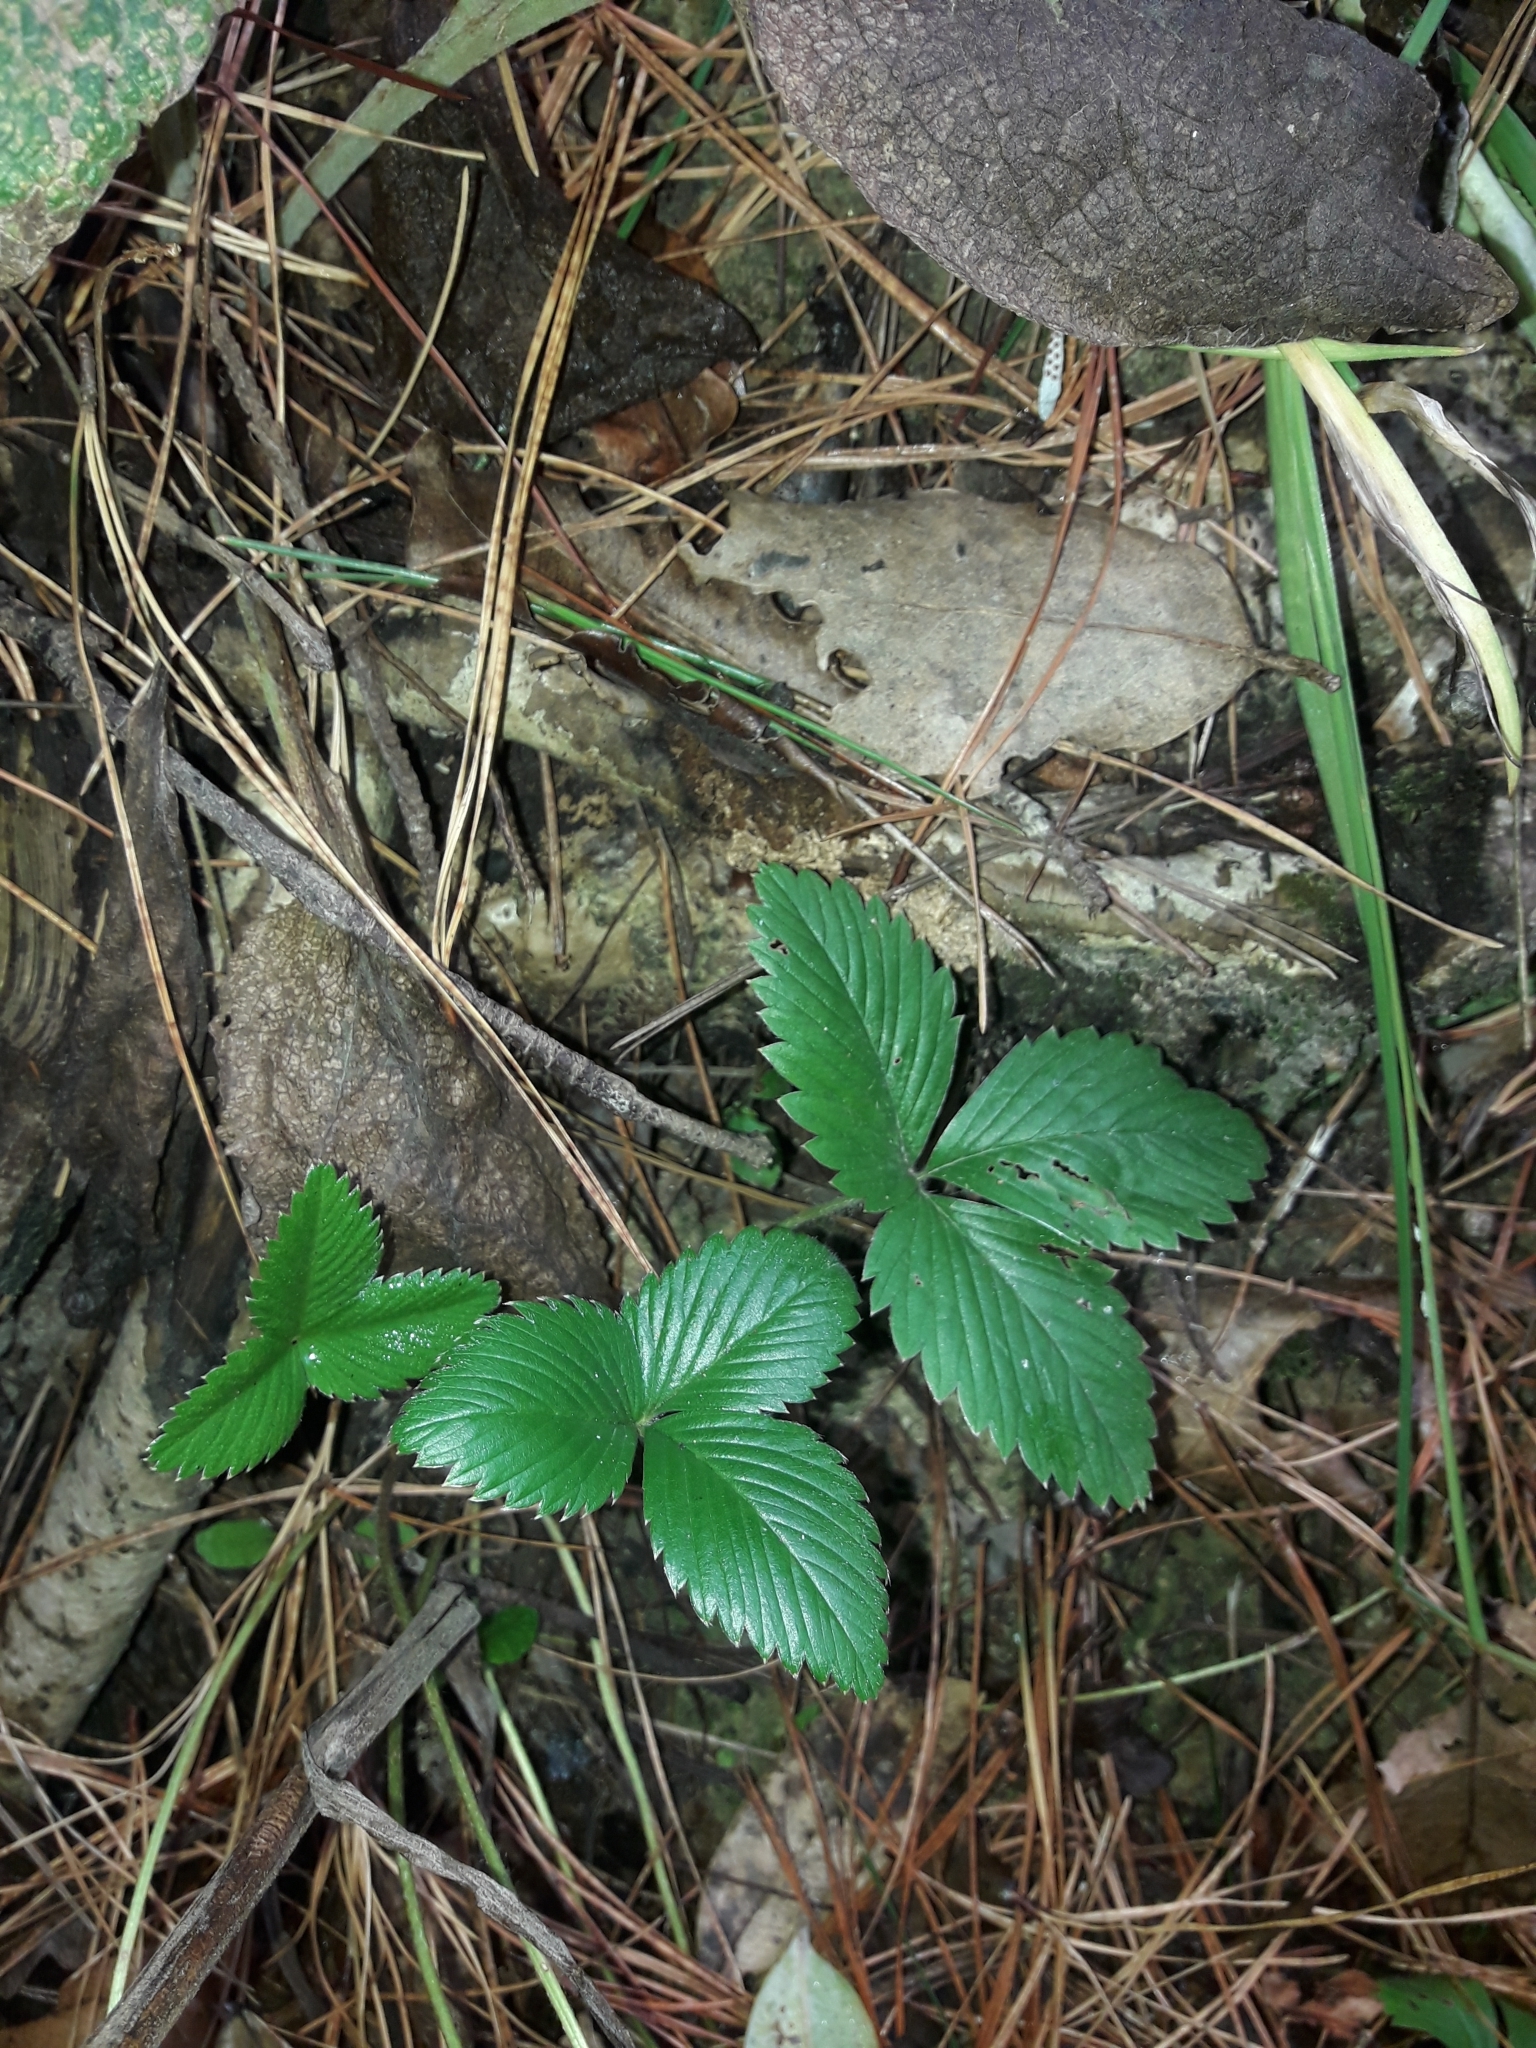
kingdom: Plantae
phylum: Tracheophyta
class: Magnoliopsida
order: Rosales
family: Rosaceae
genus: Fragaria
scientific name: Fragaria vesca
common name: Wild strawberry
